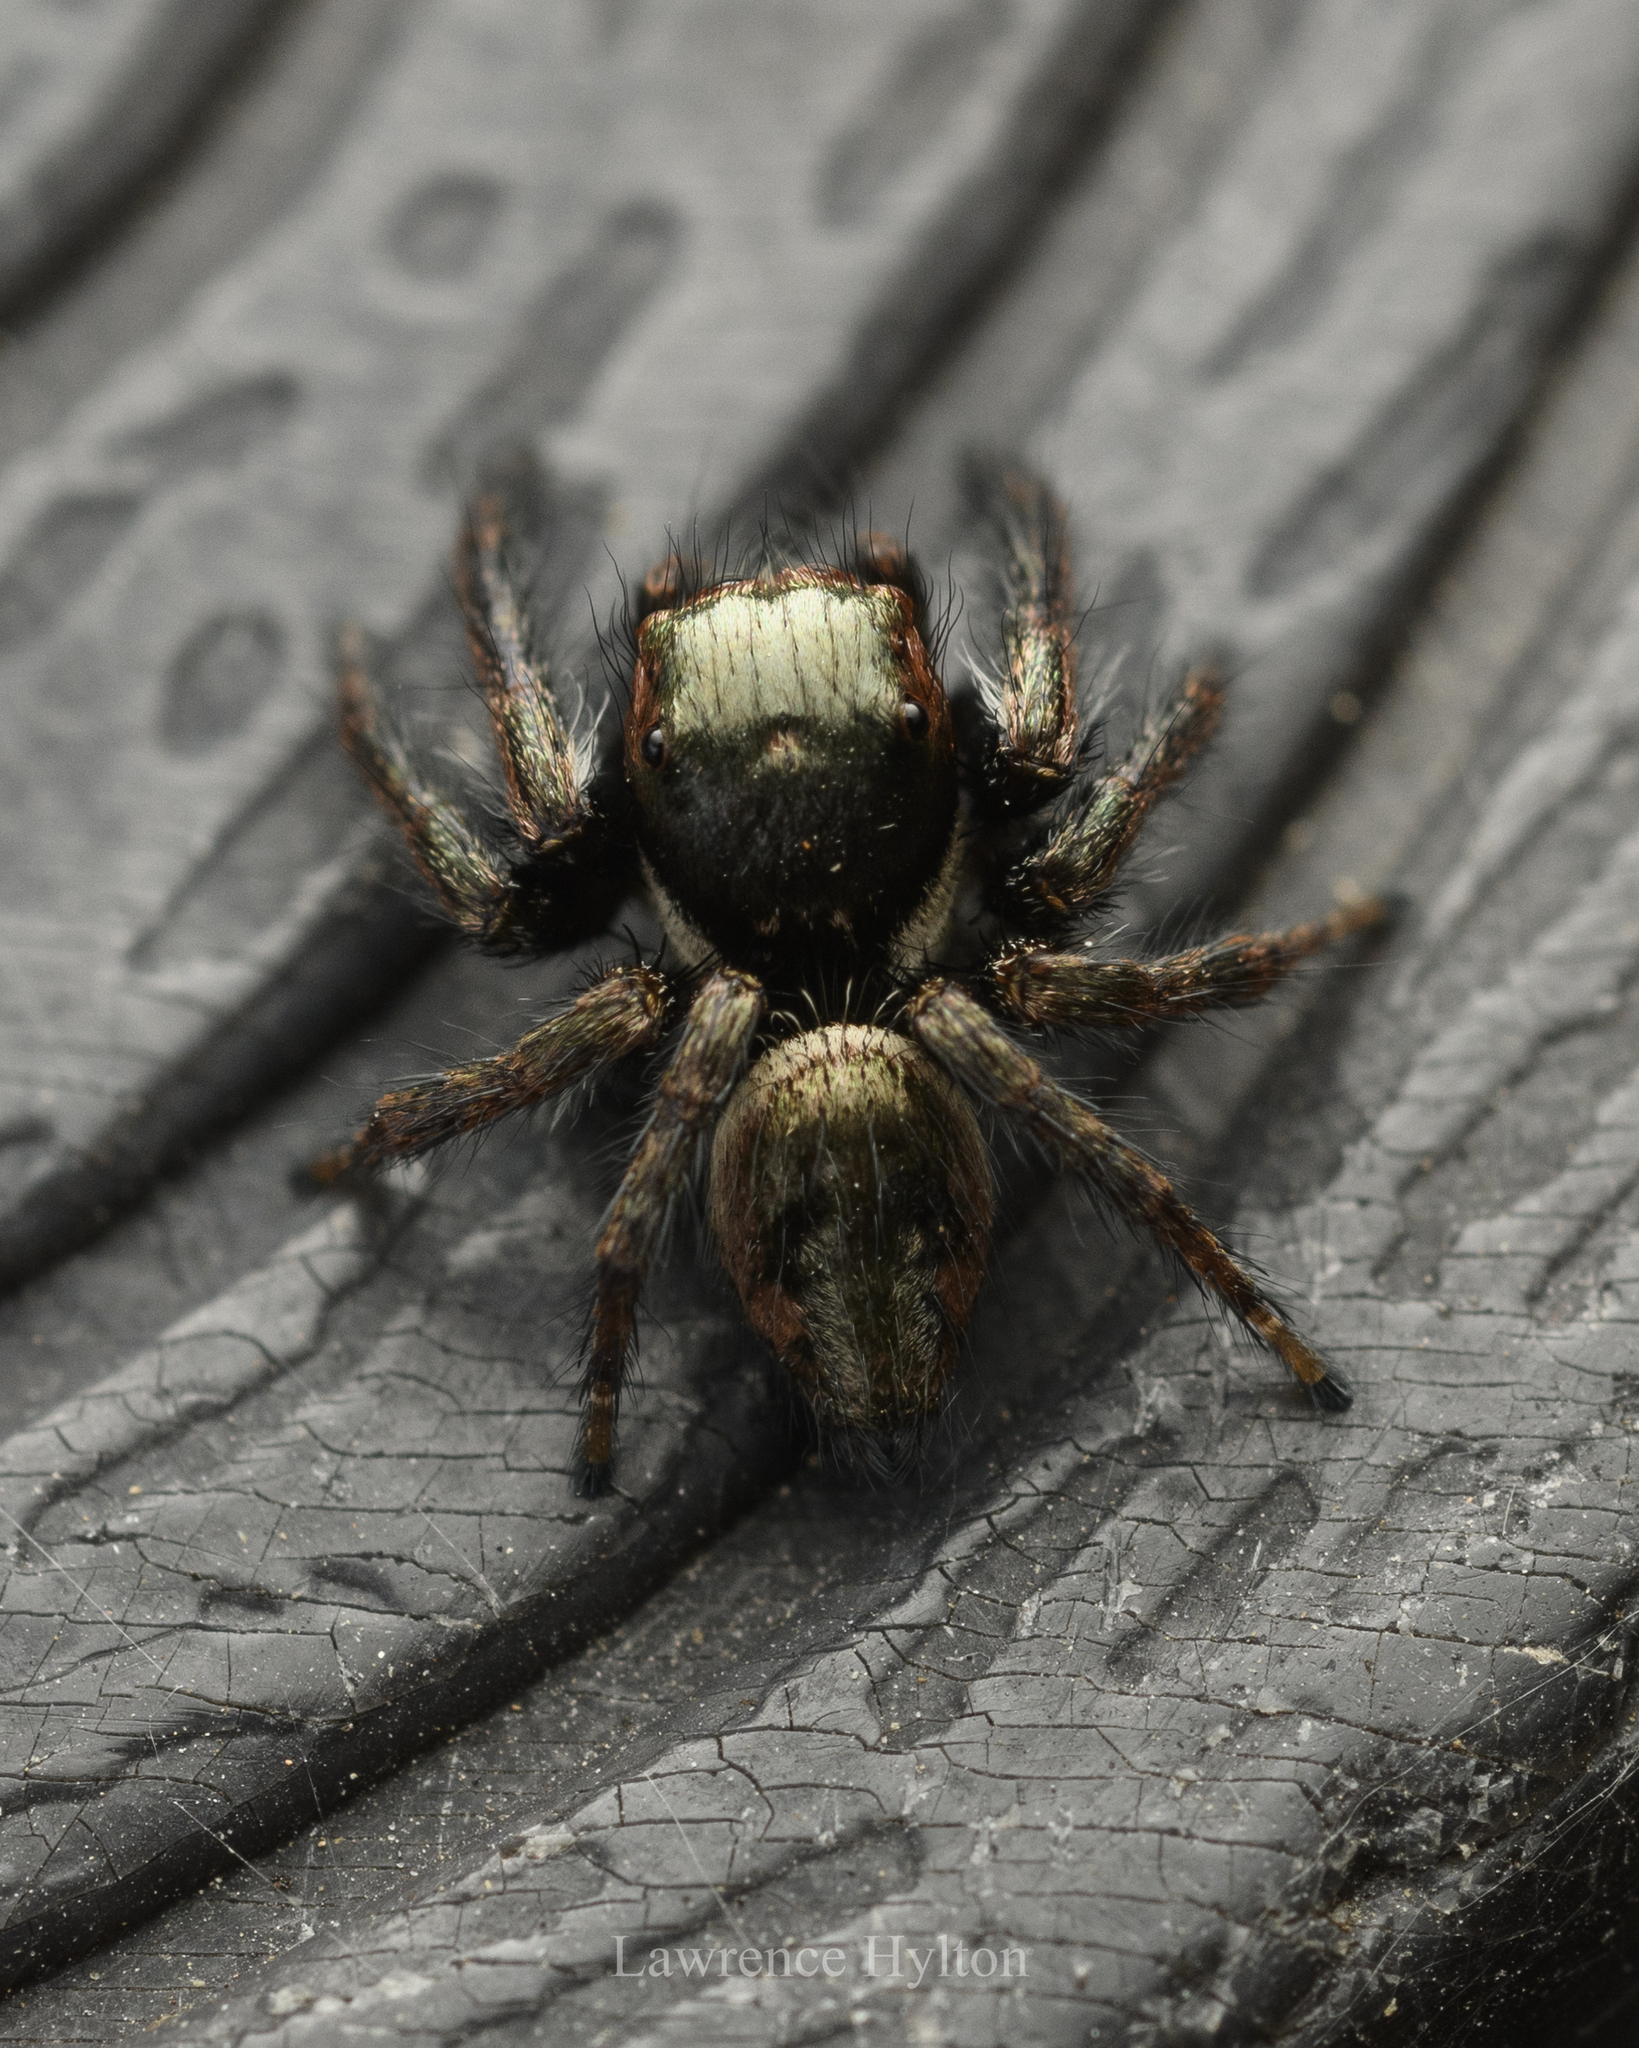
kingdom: Animalia
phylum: Arthropoda
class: Arachnida
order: Araneae
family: Salticidae
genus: Carrhotus
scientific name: Carrhotus viduus
